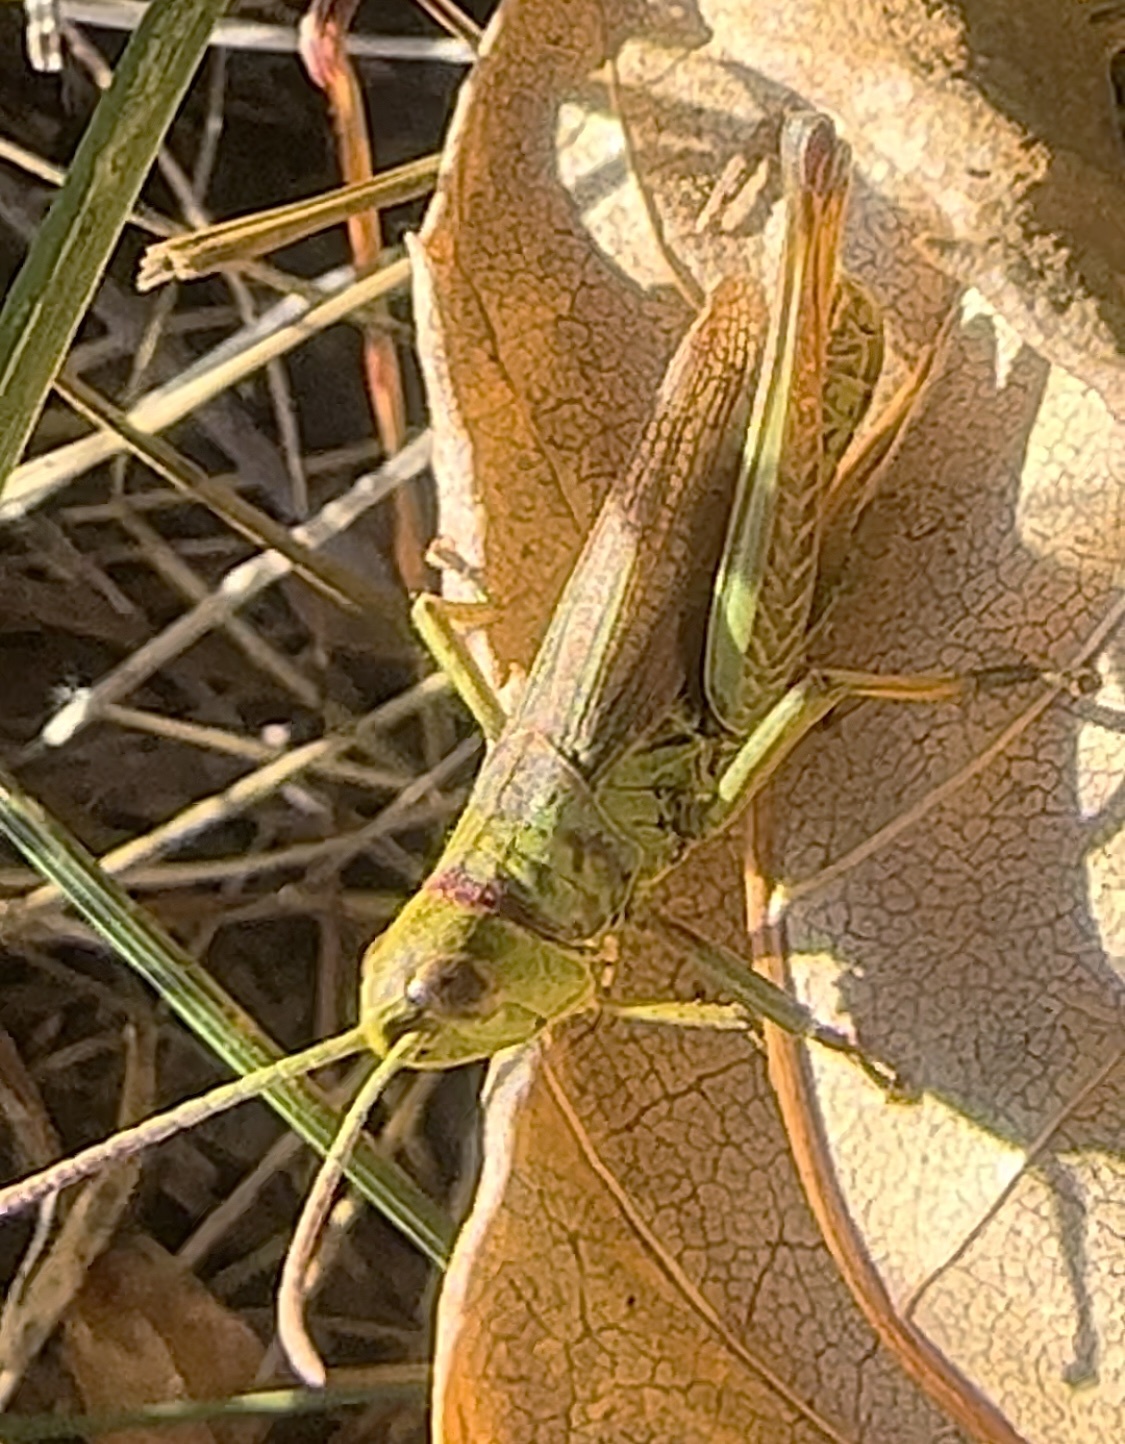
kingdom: Animalia
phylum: Arthropoda
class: Insecta
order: Orthoptera
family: Acrididae
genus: Pseudochorthippus
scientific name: Pseudochorthippus parallelus
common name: Meadow grasshopper
